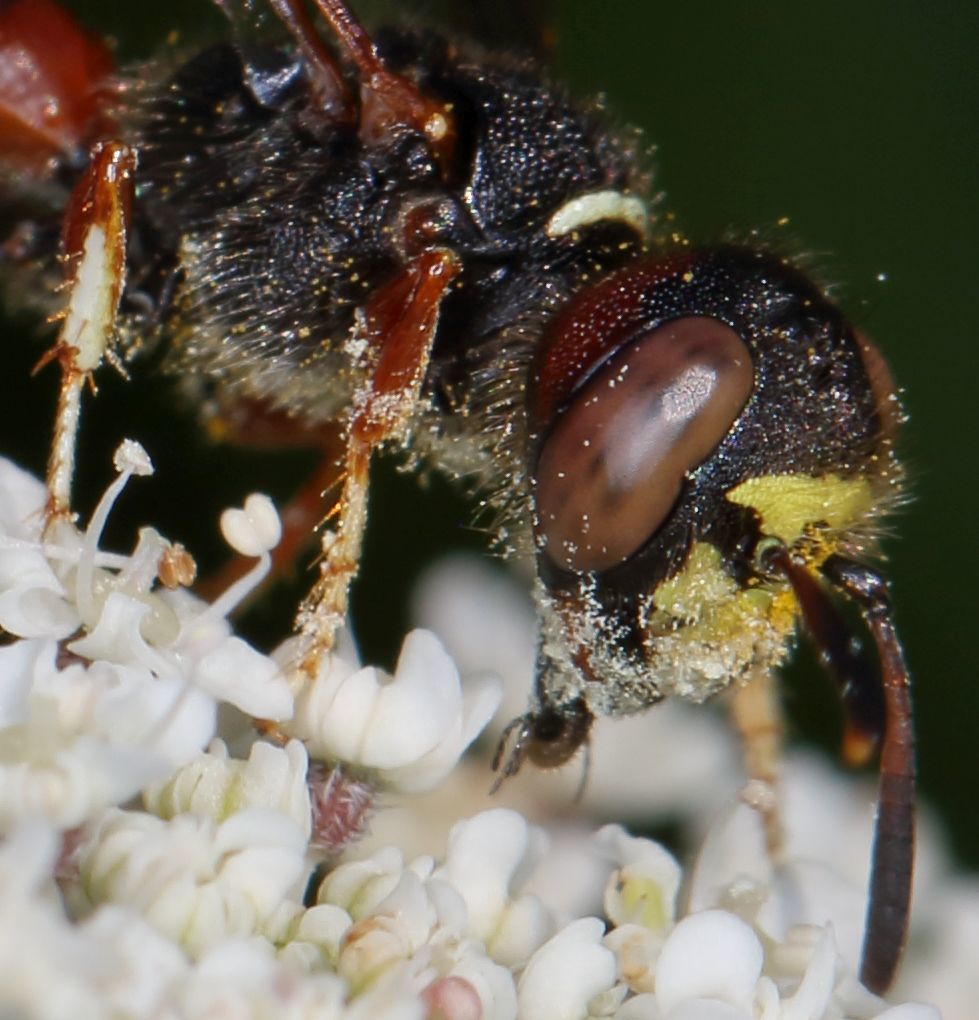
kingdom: Animalia
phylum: Arthropoda
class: Insecta
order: Hymenoptera
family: Crabronidae
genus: Philanthus
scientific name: Philanthus histrio
